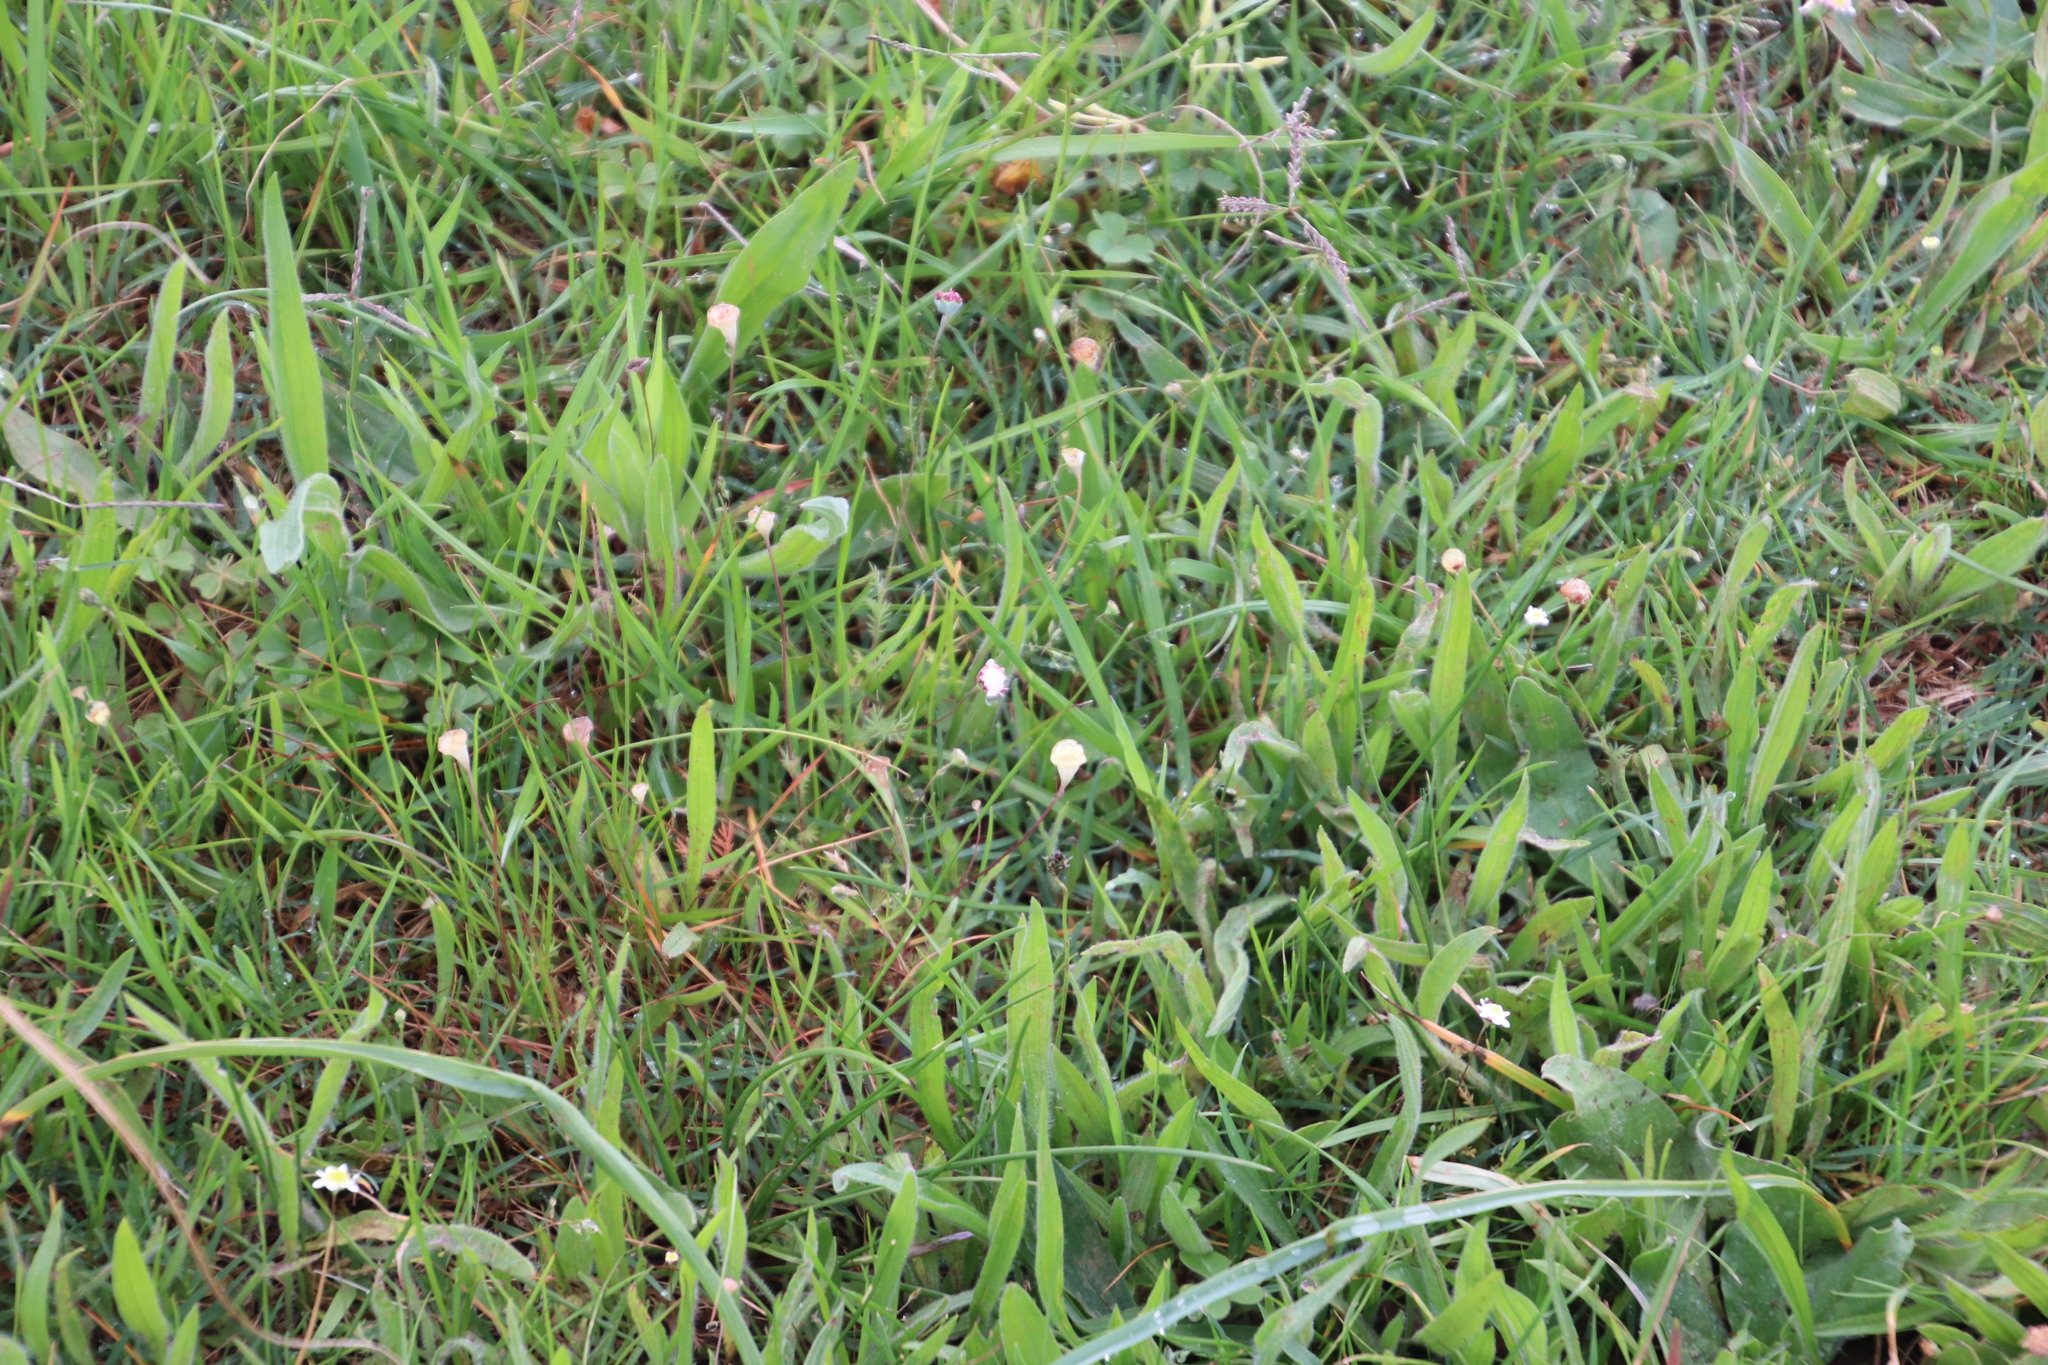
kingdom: Plantae
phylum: Tracheophyta
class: Magnoliopsida
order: Asterales
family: Asteraceae
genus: Cotula
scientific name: Cotula turbinata
